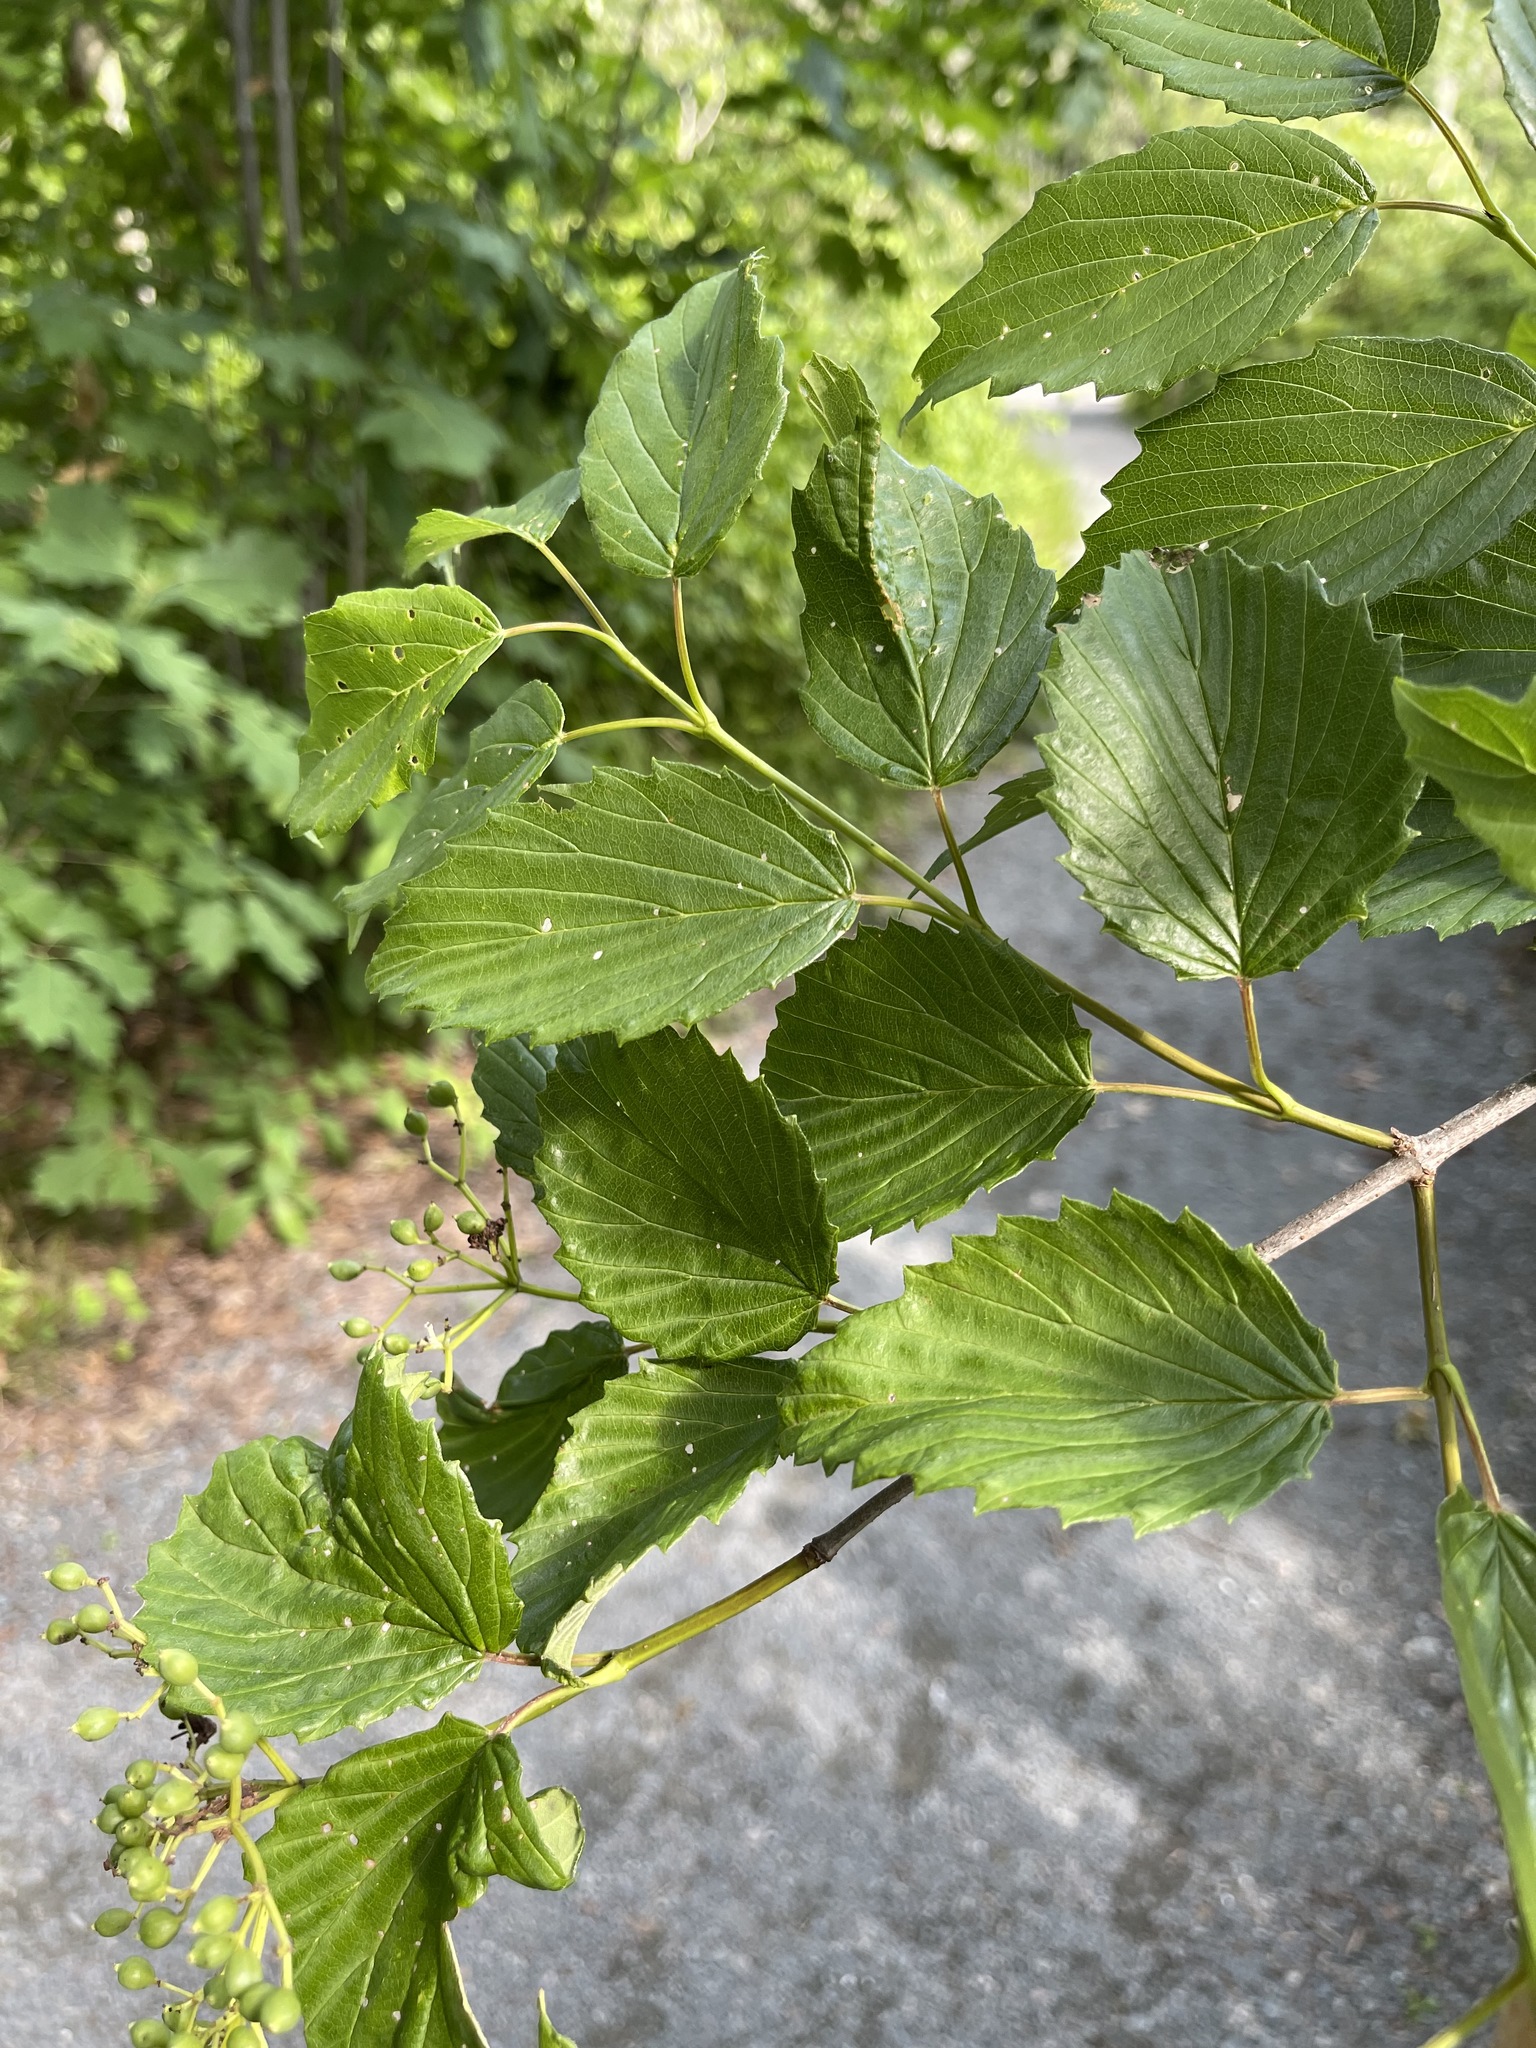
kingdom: Plantae
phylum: Tracheophyta
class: Magnoliopsida
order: Dipsacales
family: Viburnaceae
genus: Viburnum
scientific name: Viburnum dentatum
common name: Arrow-wood
